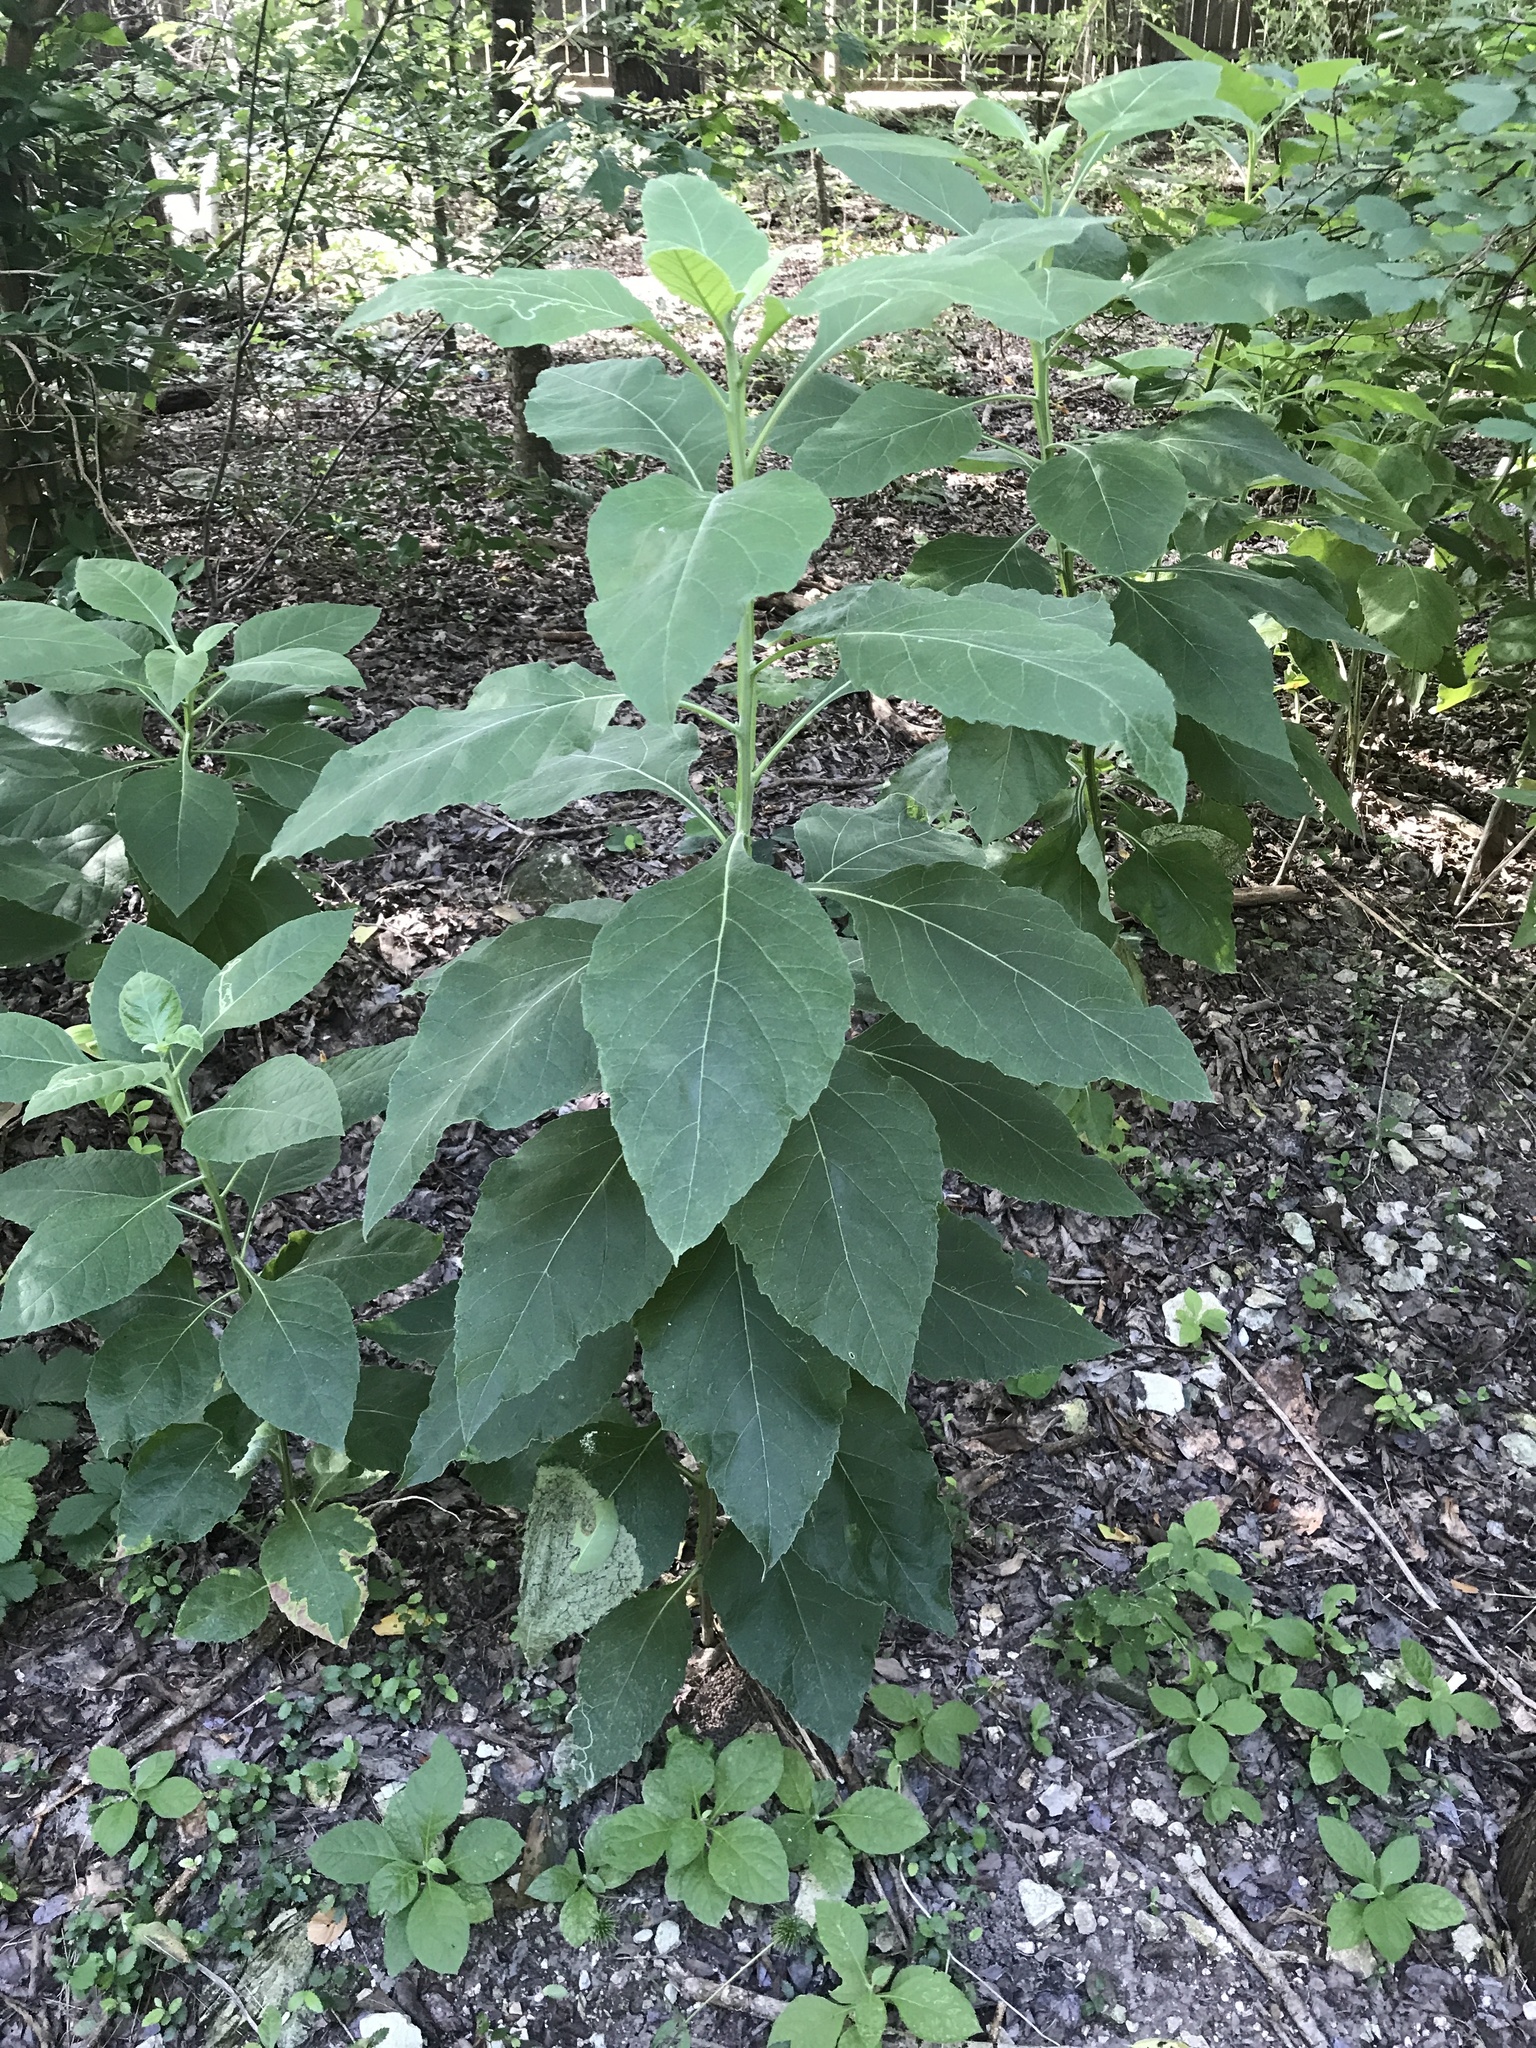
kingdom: Plantae
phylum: Tracheophyta
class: Magnoliopsida
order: Asterales
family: Asteraceae
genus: Verbesina
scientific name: Verbesina virginica
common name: Frostweed
